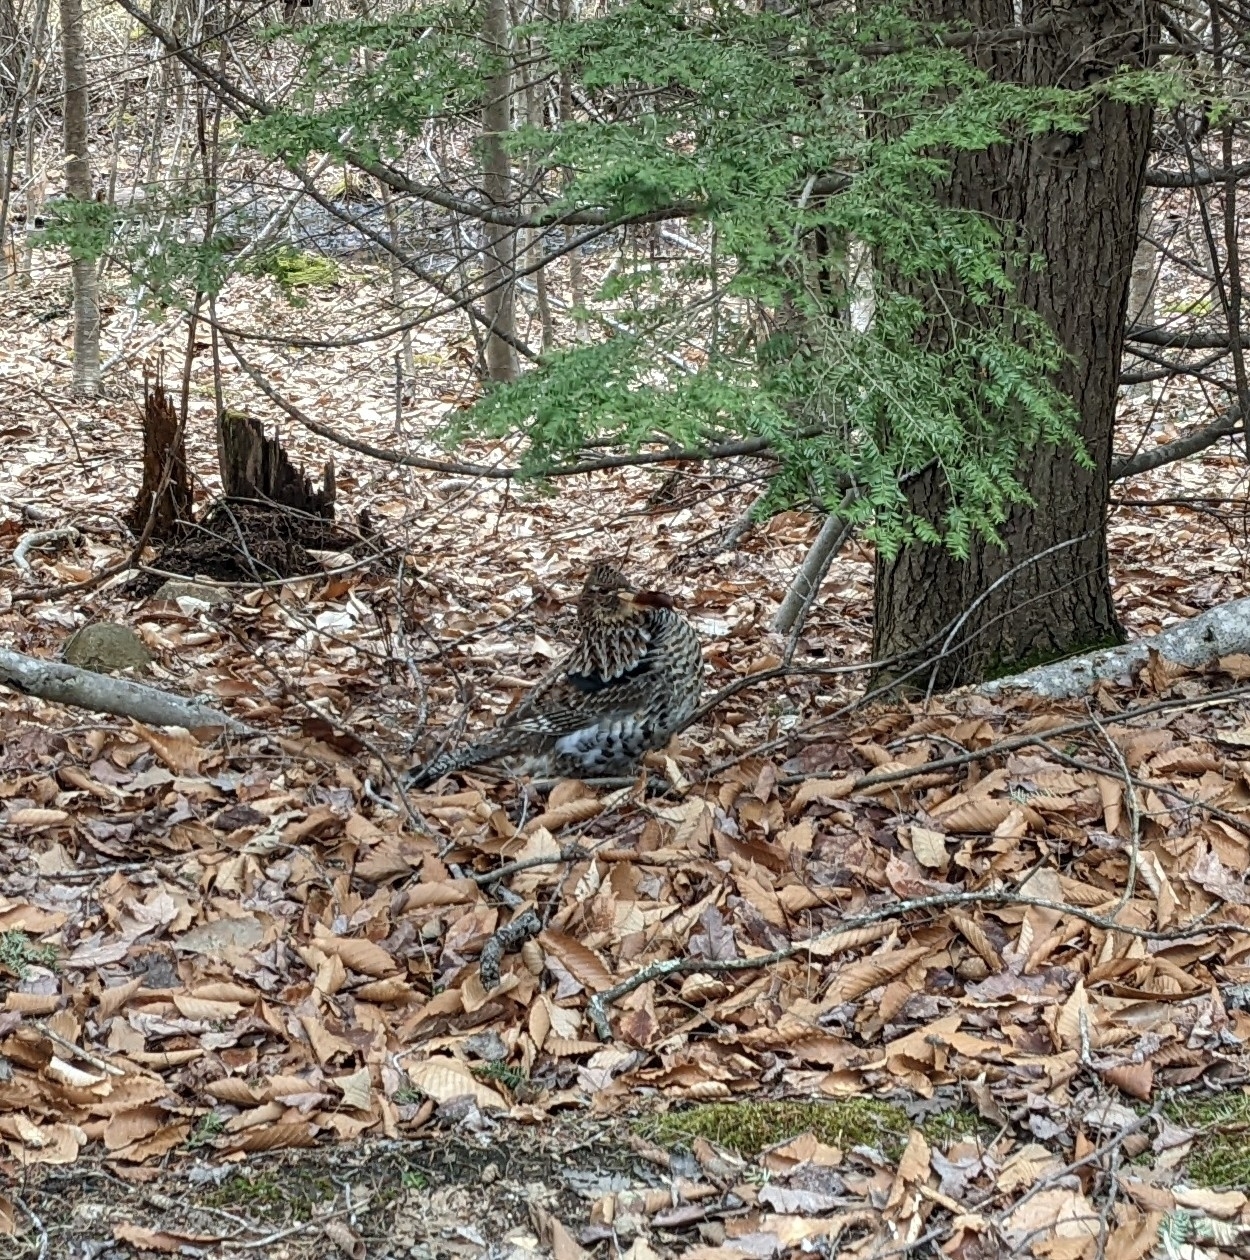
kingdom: Animalia
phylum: Chordata
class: Aves
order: Galliformes
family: Phasianidae
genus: Bonasa
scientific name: Bonasa umbellus
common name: Ruffed grouse
